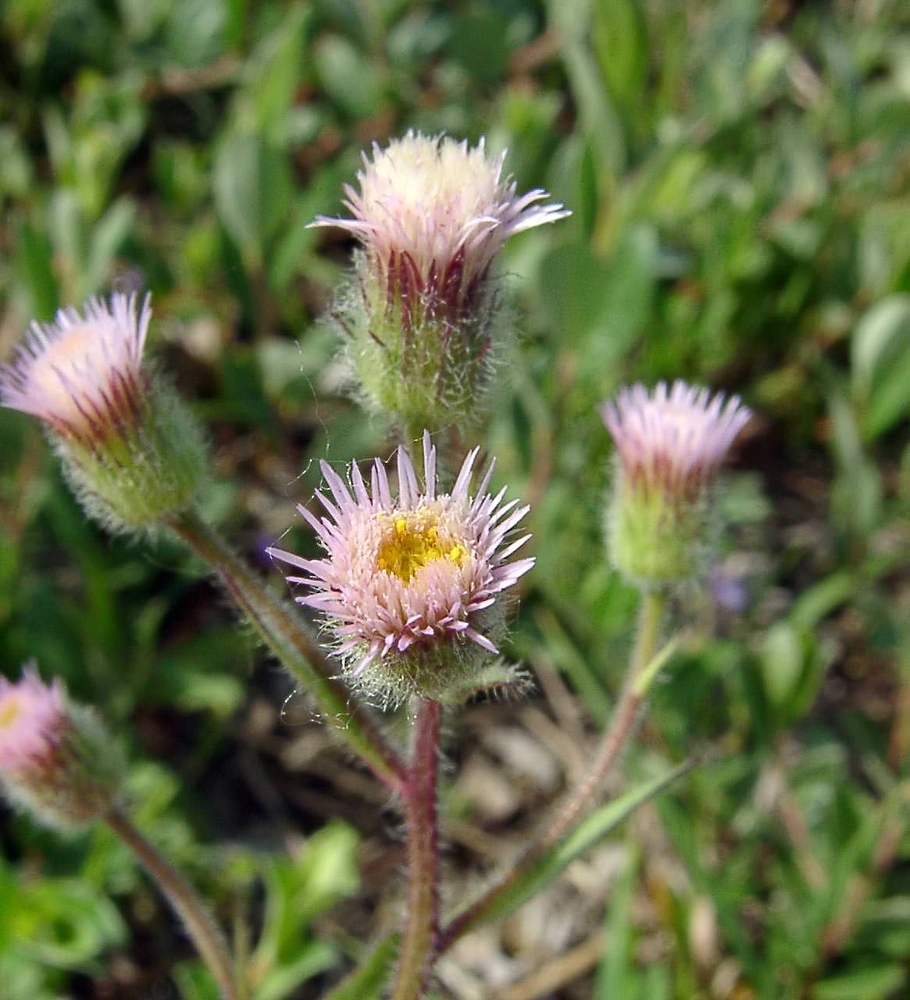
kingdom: Plantae
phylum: Tracheophyta
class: Magnoliopsida
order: Asterales
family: Asteraceae
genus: Erigeron
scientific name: Erigeron acris
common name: Blue fleabane
